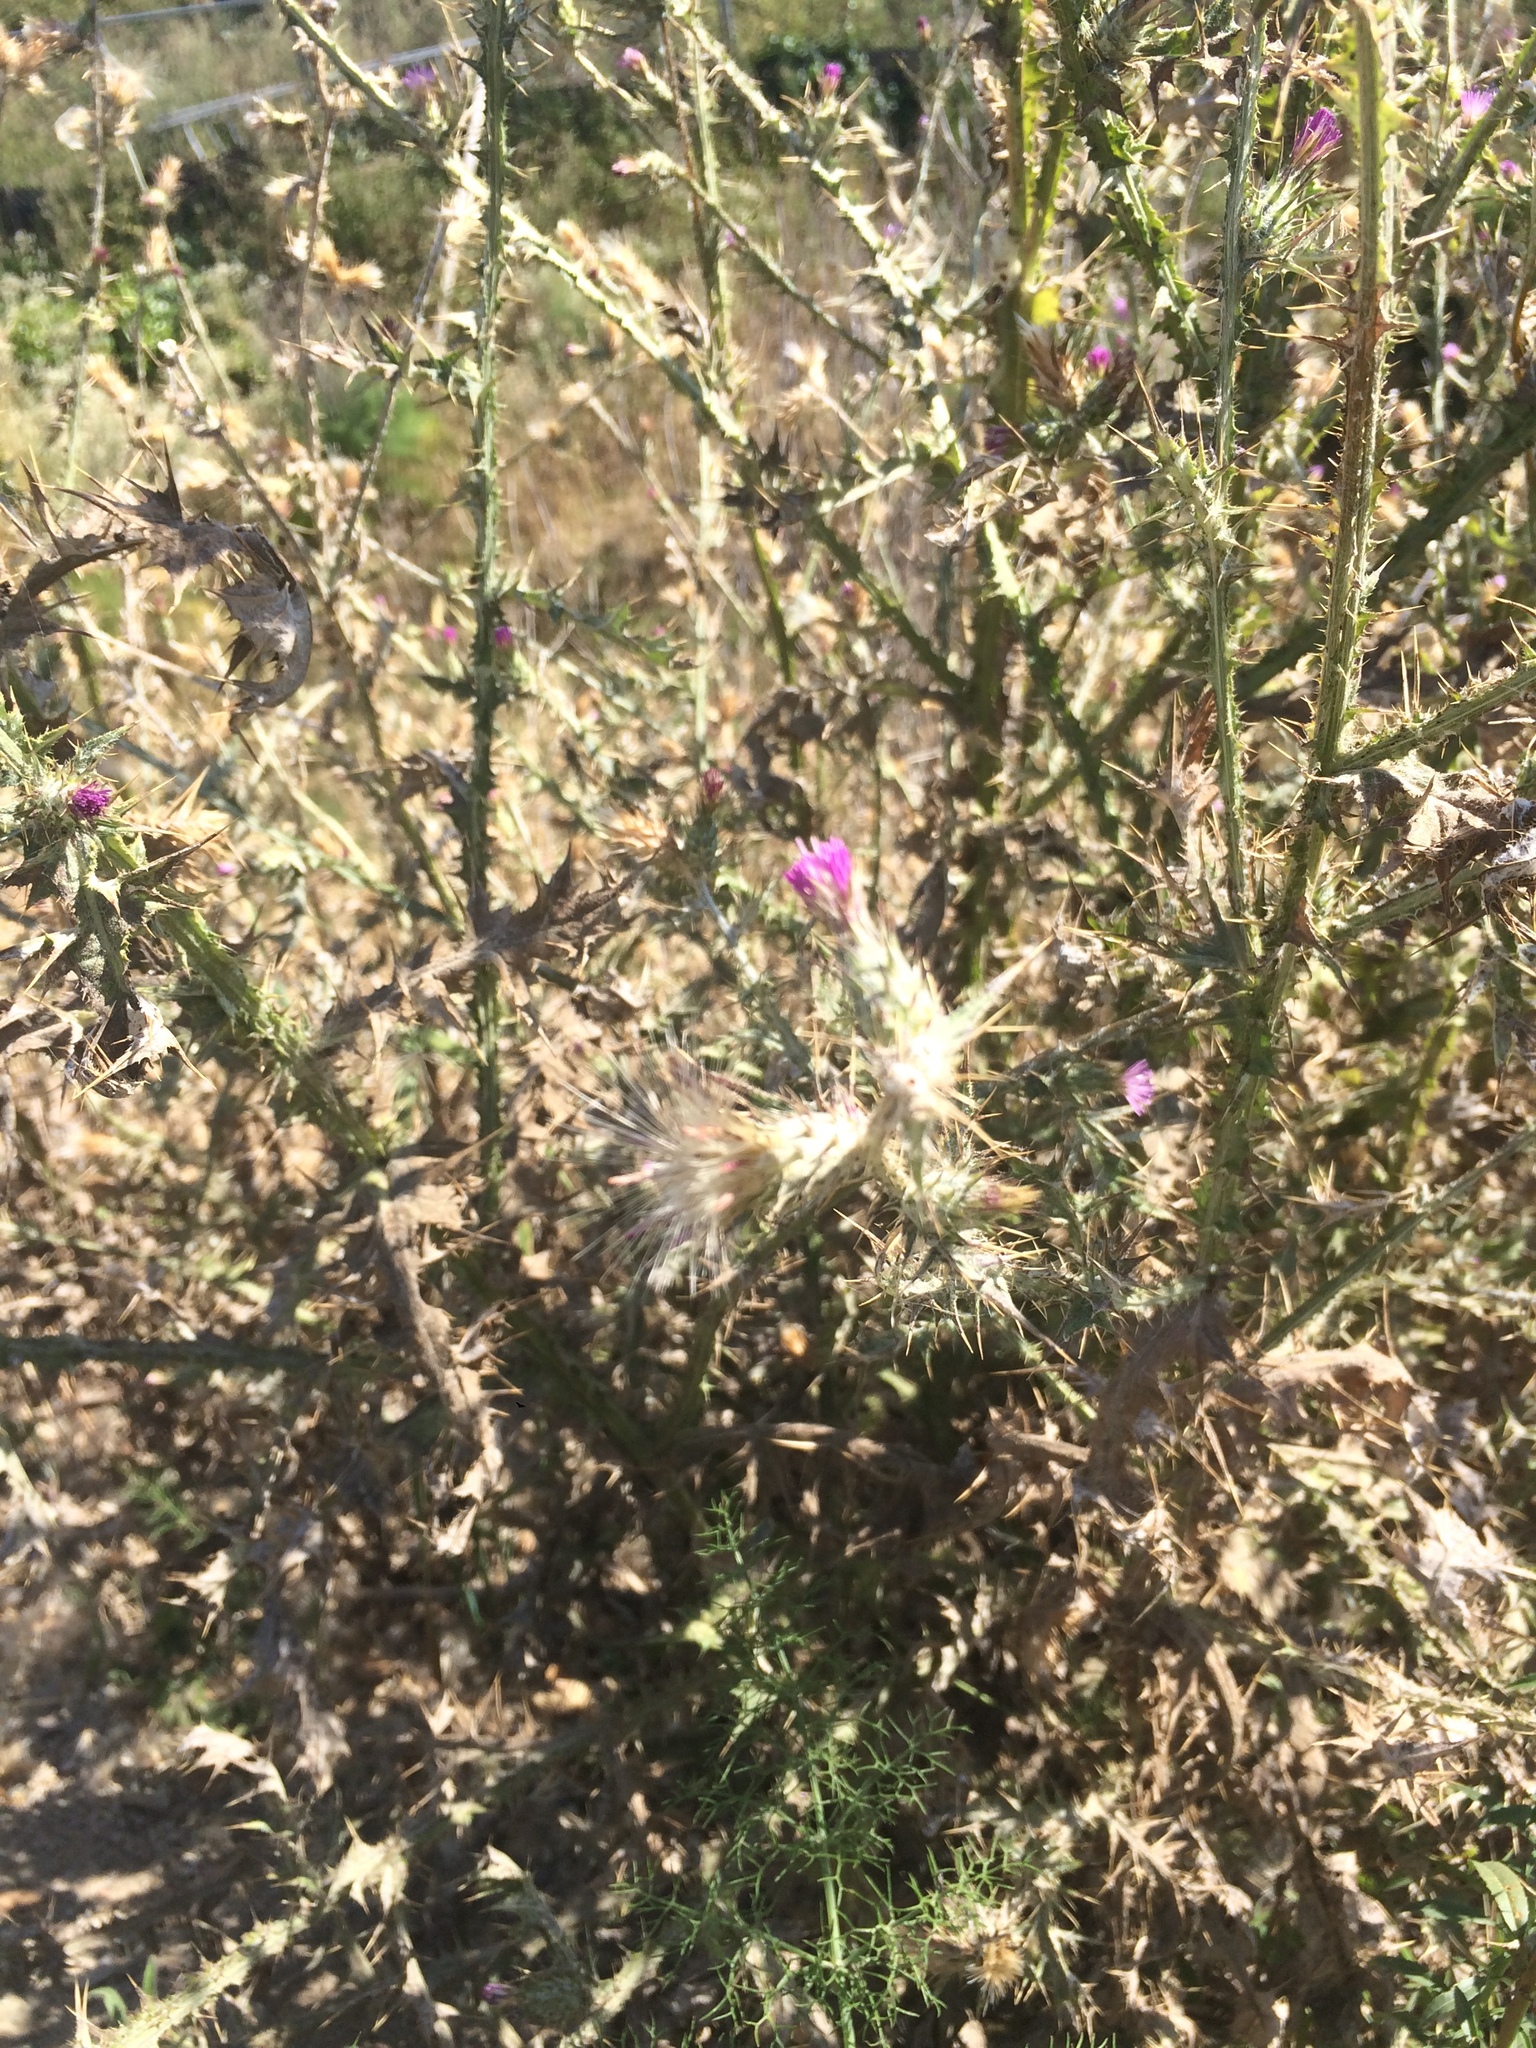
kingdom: Plantae
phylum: Tracheophyta
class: Magnoliopsida
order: Asterales
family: Asteraceae
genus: Carduus
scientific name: Carduus pycnocephalus
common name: Plymouth thistle
